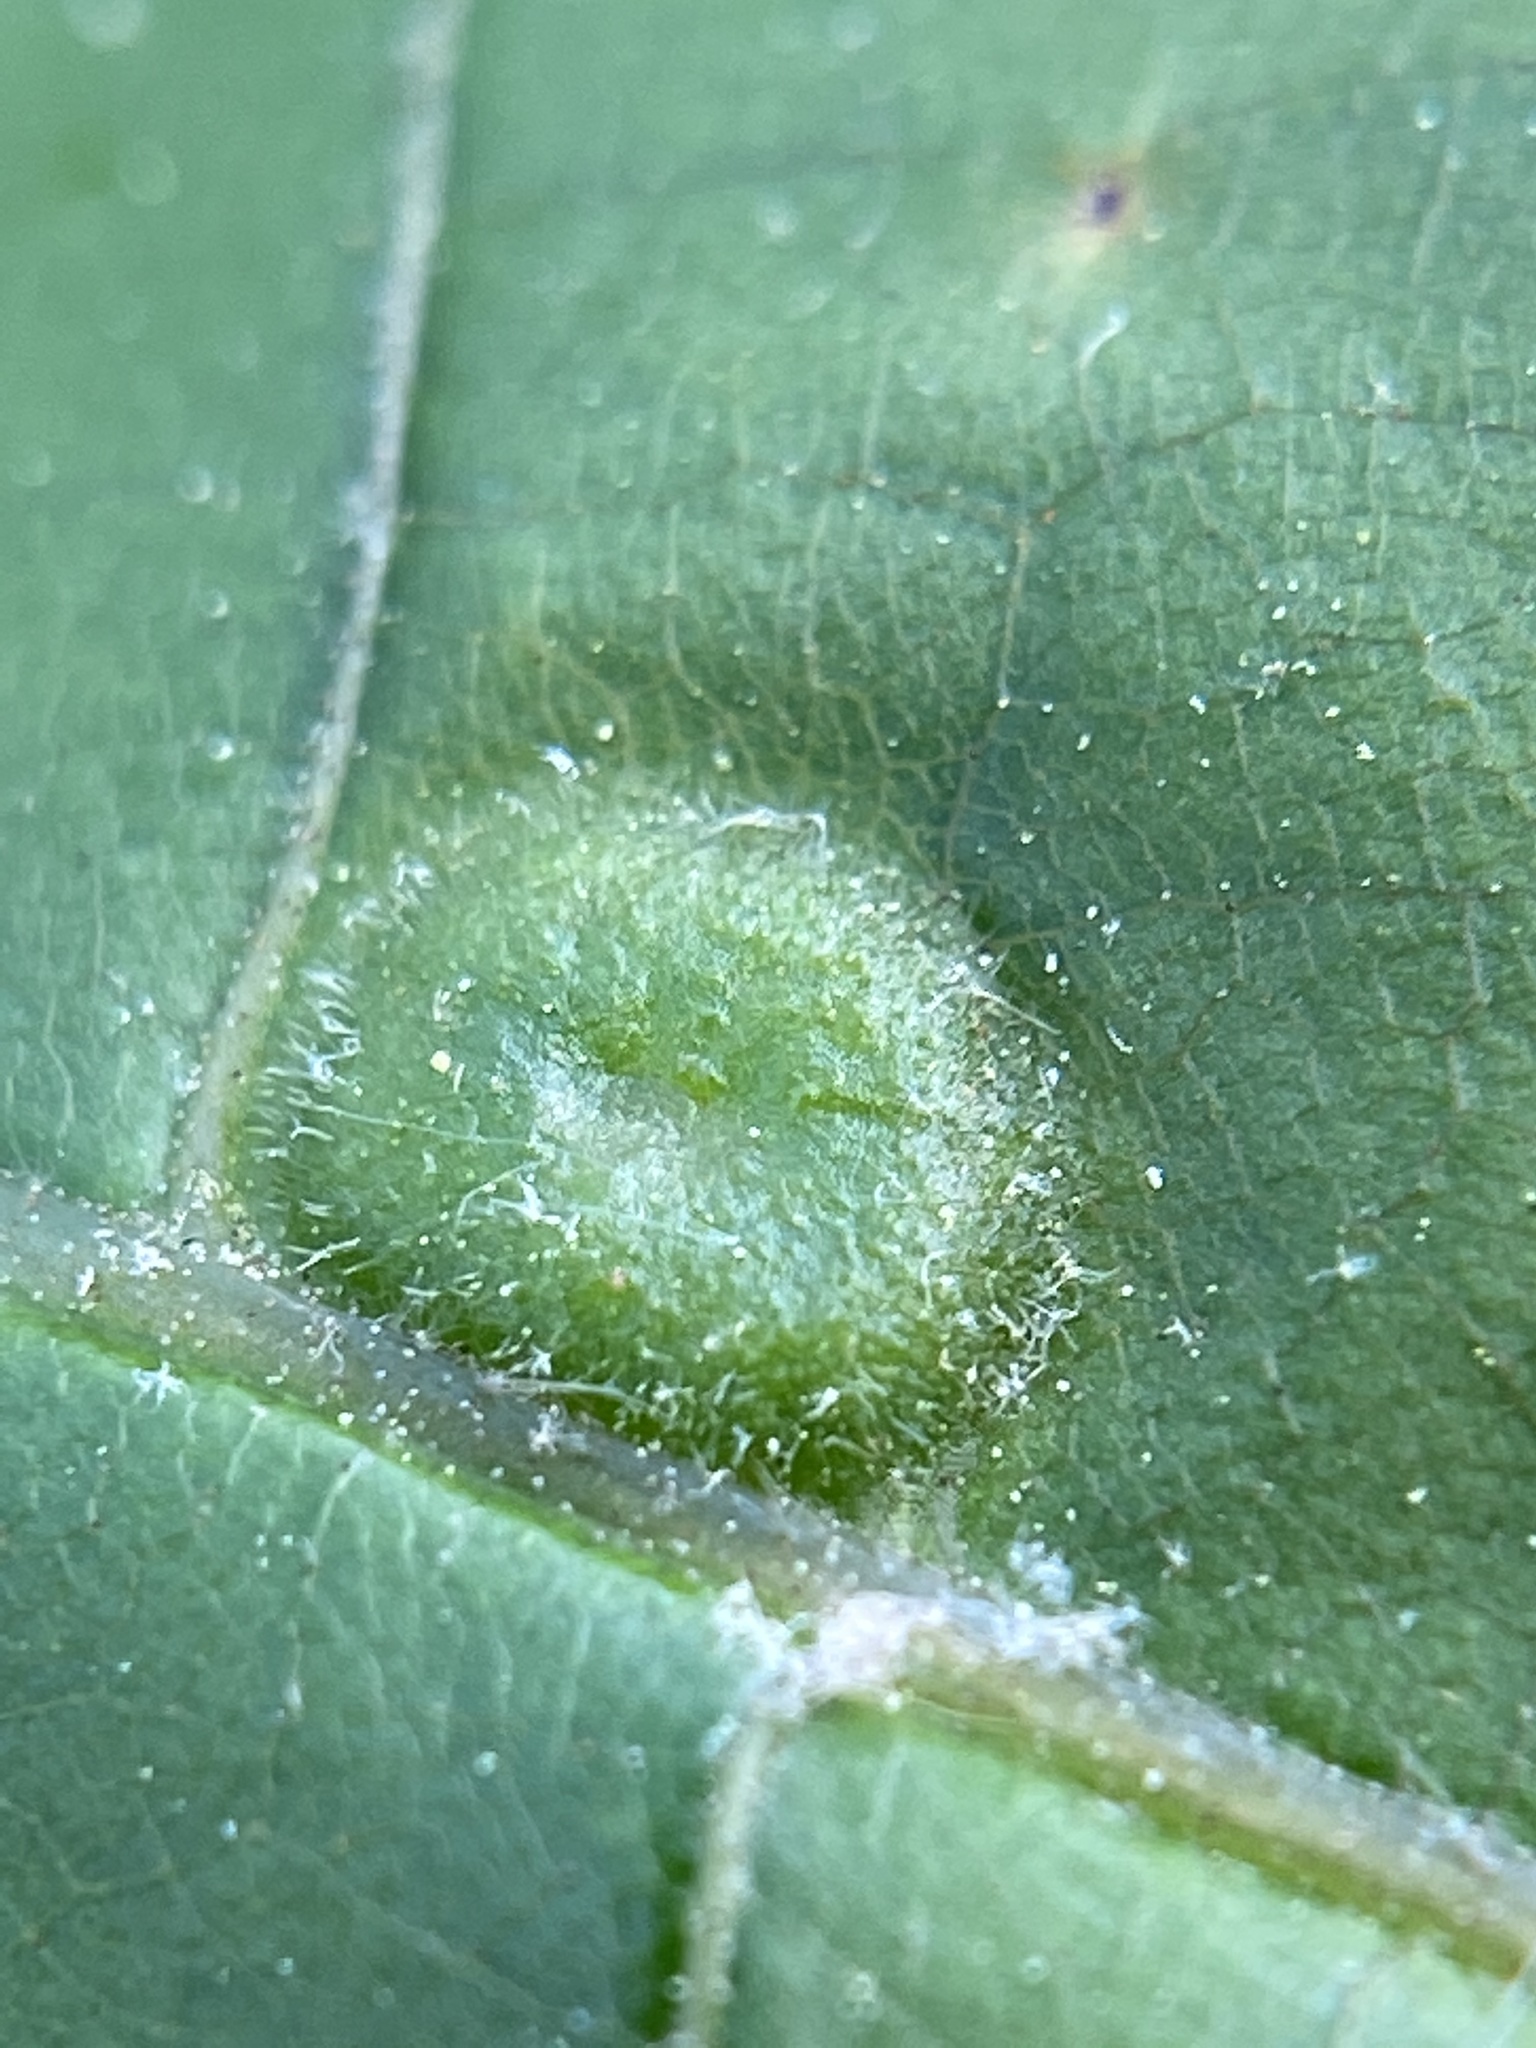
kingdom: Animalia
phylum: Arthropoda
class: Insecta
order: Hemiptera
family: Phylloxeridae
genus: Phylloxera
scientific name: Phylloxera pilosula
